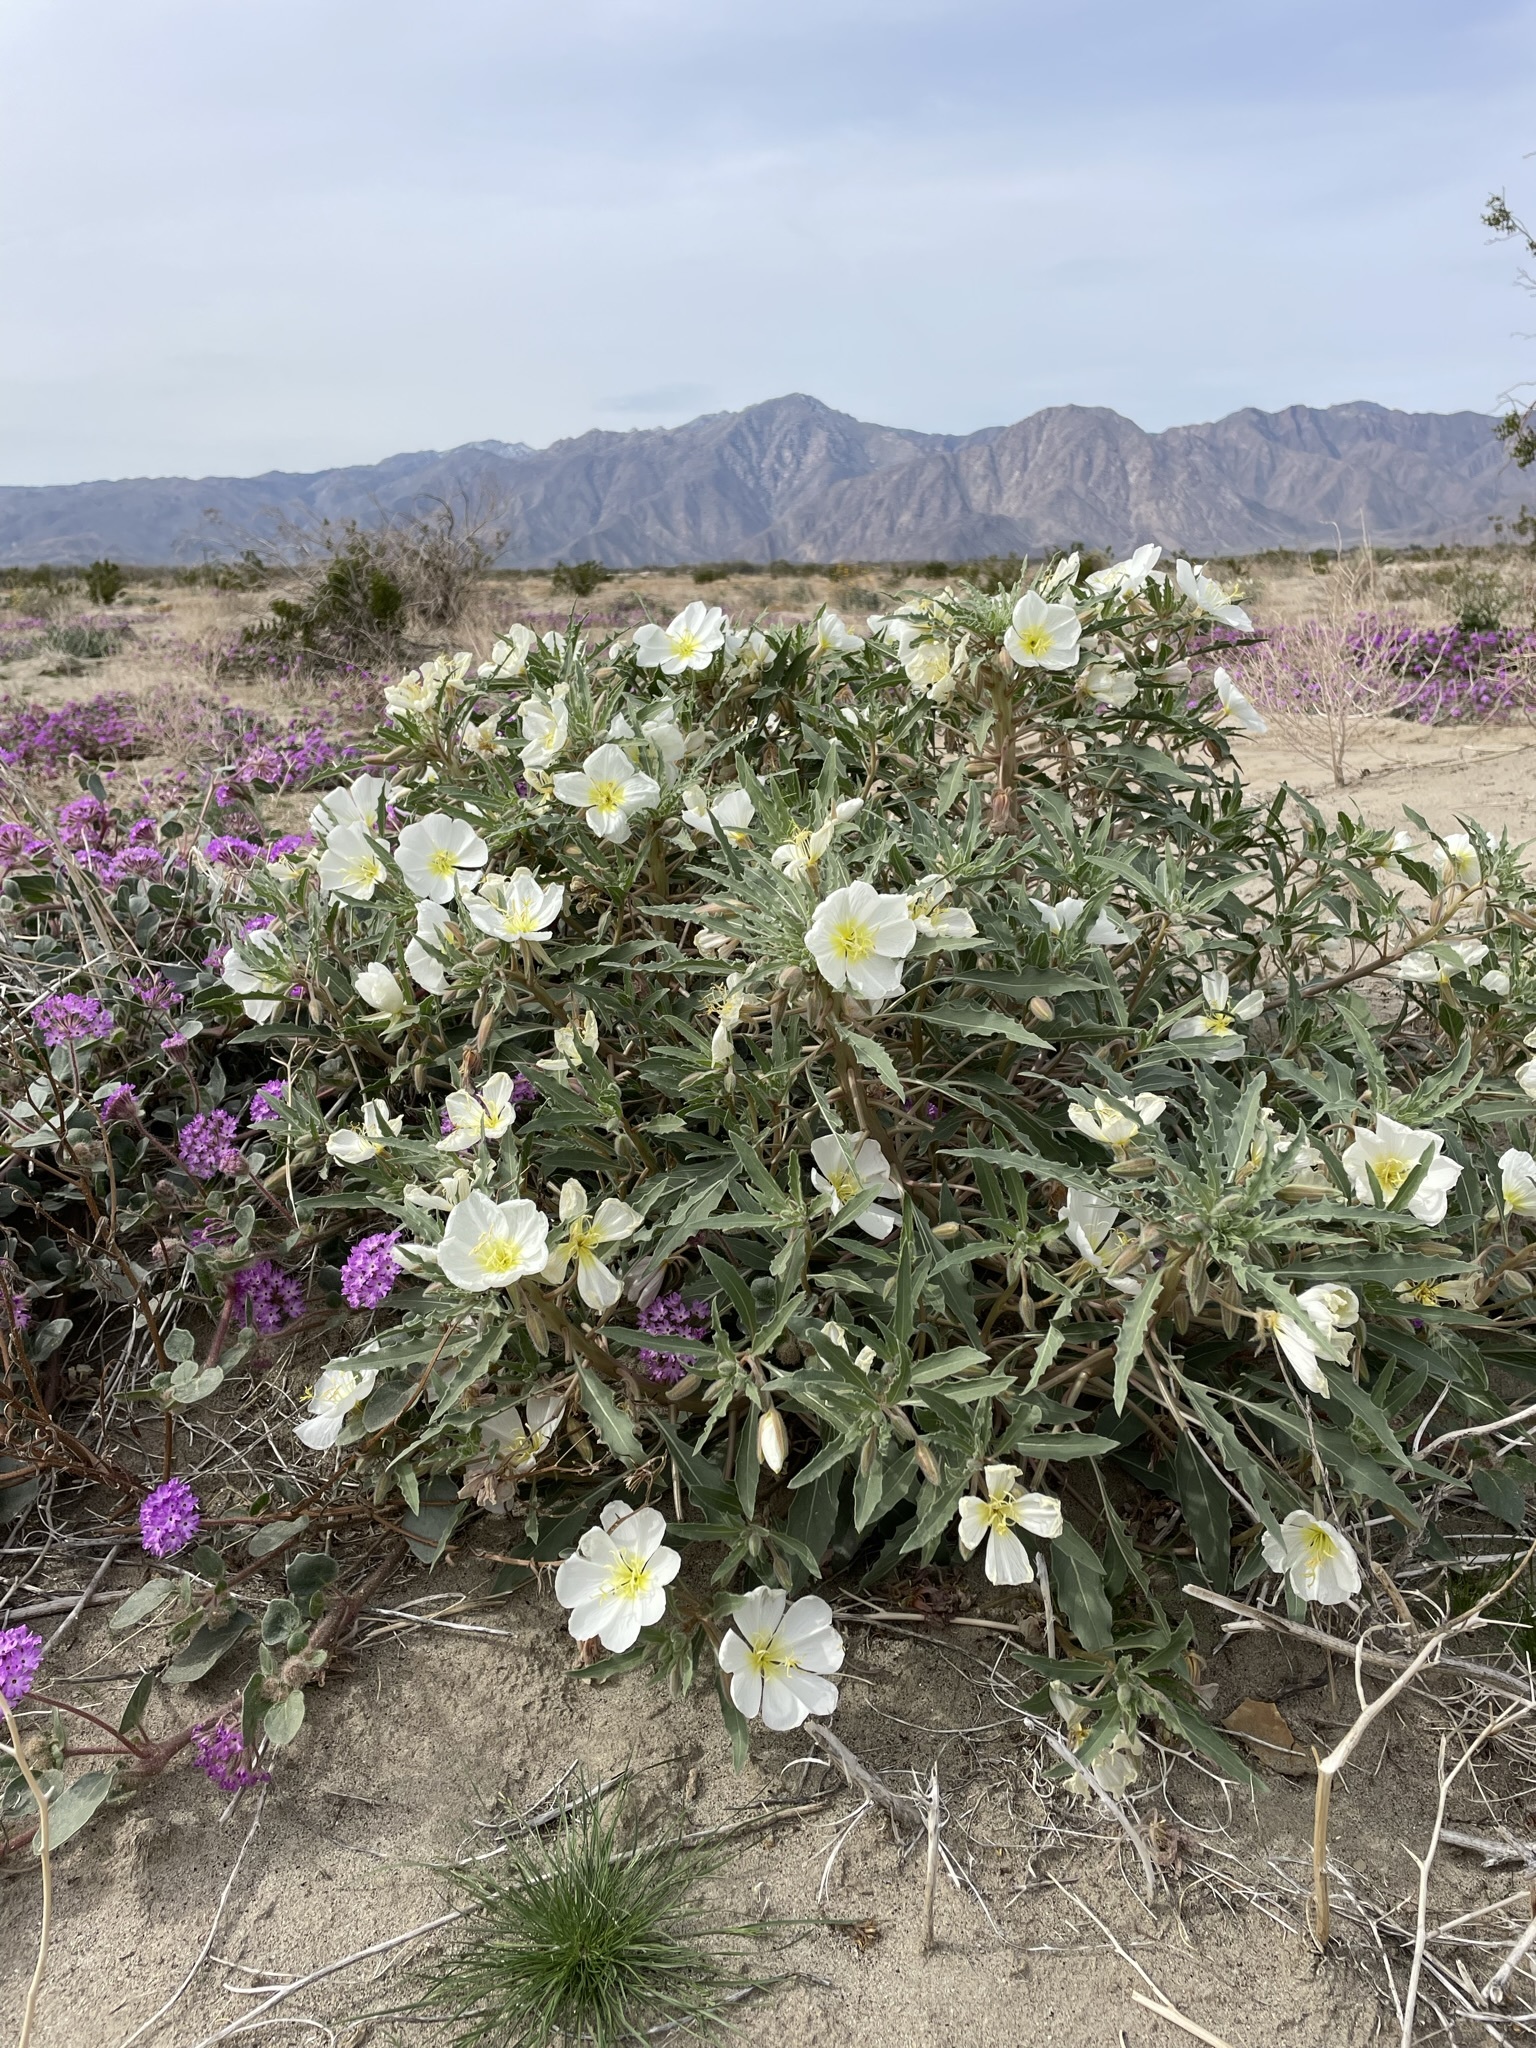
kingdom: Plantae
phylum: Tracheophyta
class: Magnoliopsida
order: Myrtales
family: Onagraceae
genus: Oenothera
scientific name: Oenothera deltoides
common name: Basket evening-primrose
